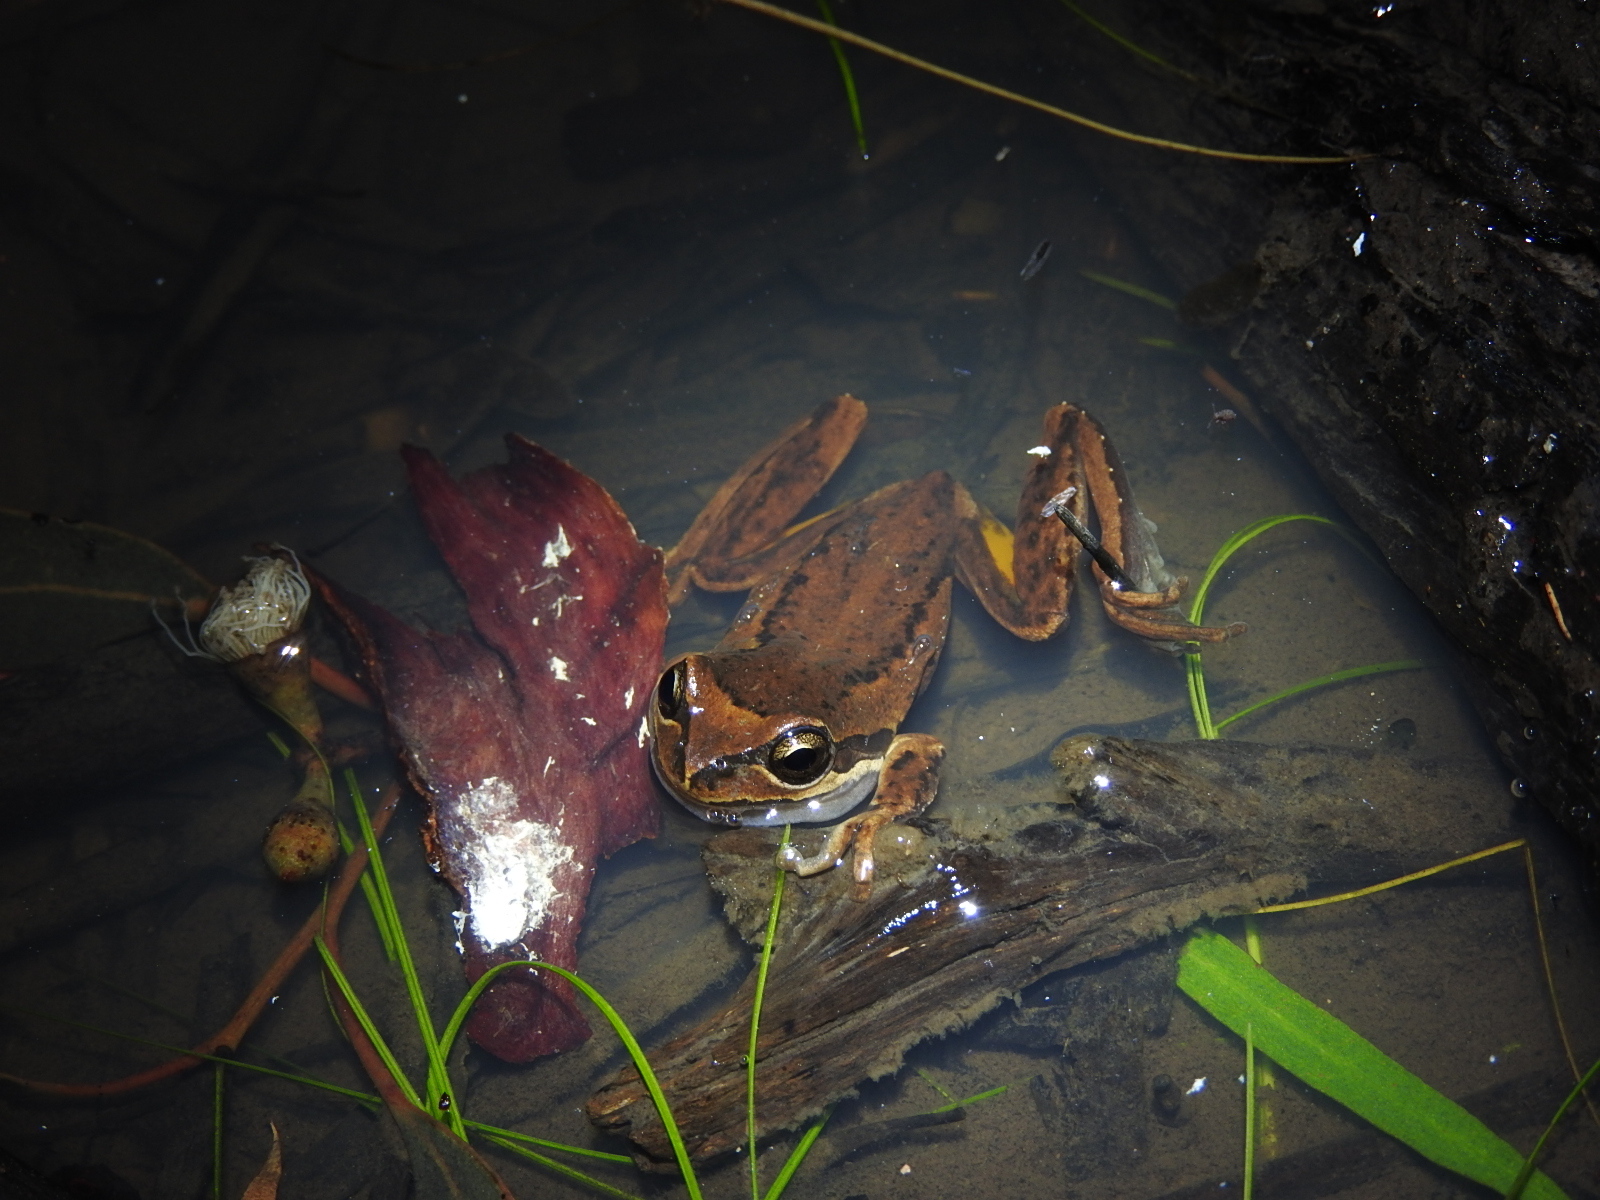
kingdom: Animalia
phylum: Chordata
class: Amphibia
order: Anura
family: Pelodryadidae
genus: Litoria
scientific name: Litoria ewingii
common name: Southern brown tree frog
